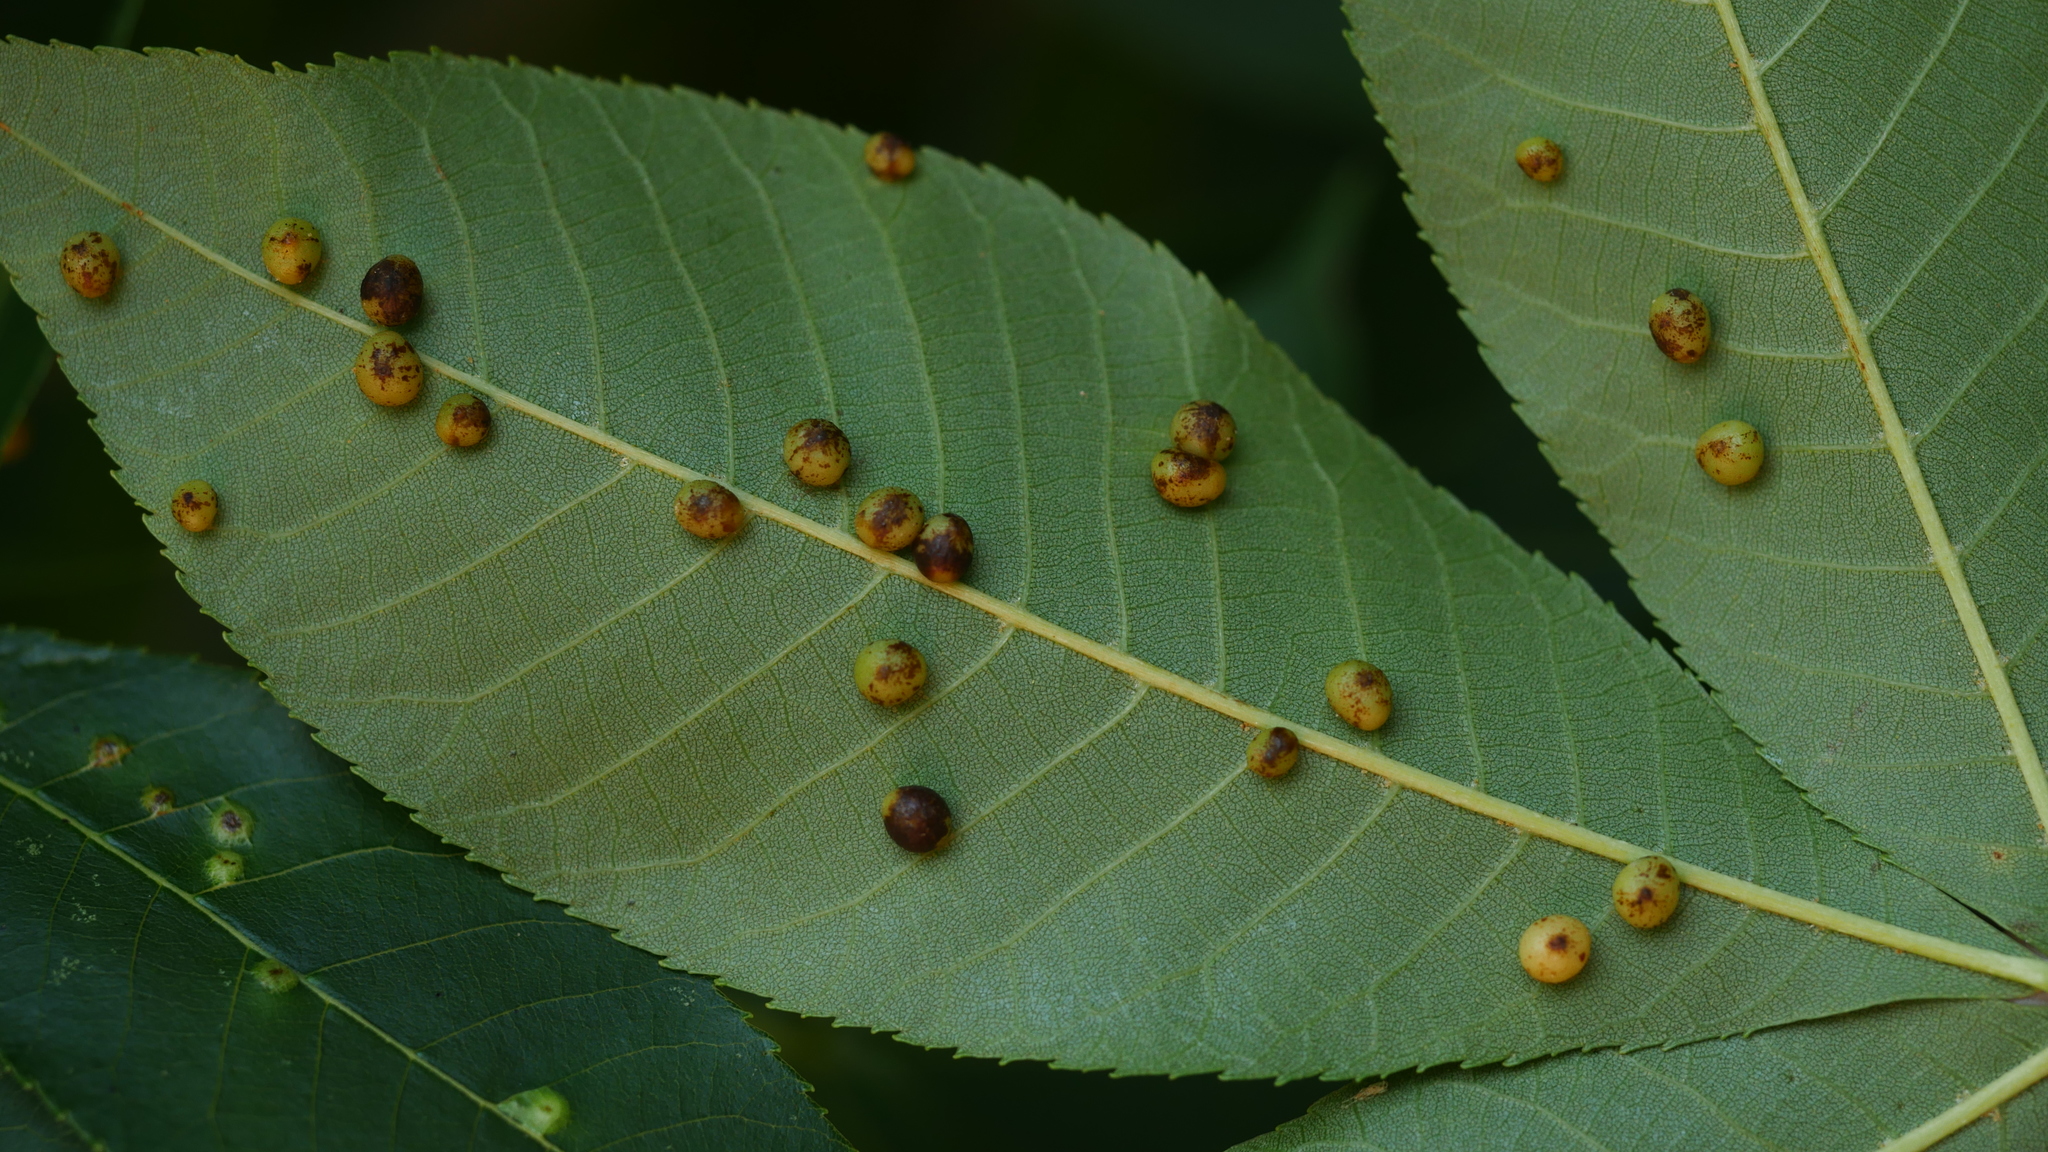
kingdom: Animalia
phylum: Arthropoda
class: Insecta
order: Diptera
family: Cecidomyiidae
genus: Caryomyia
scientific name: Caryomyia caryae
